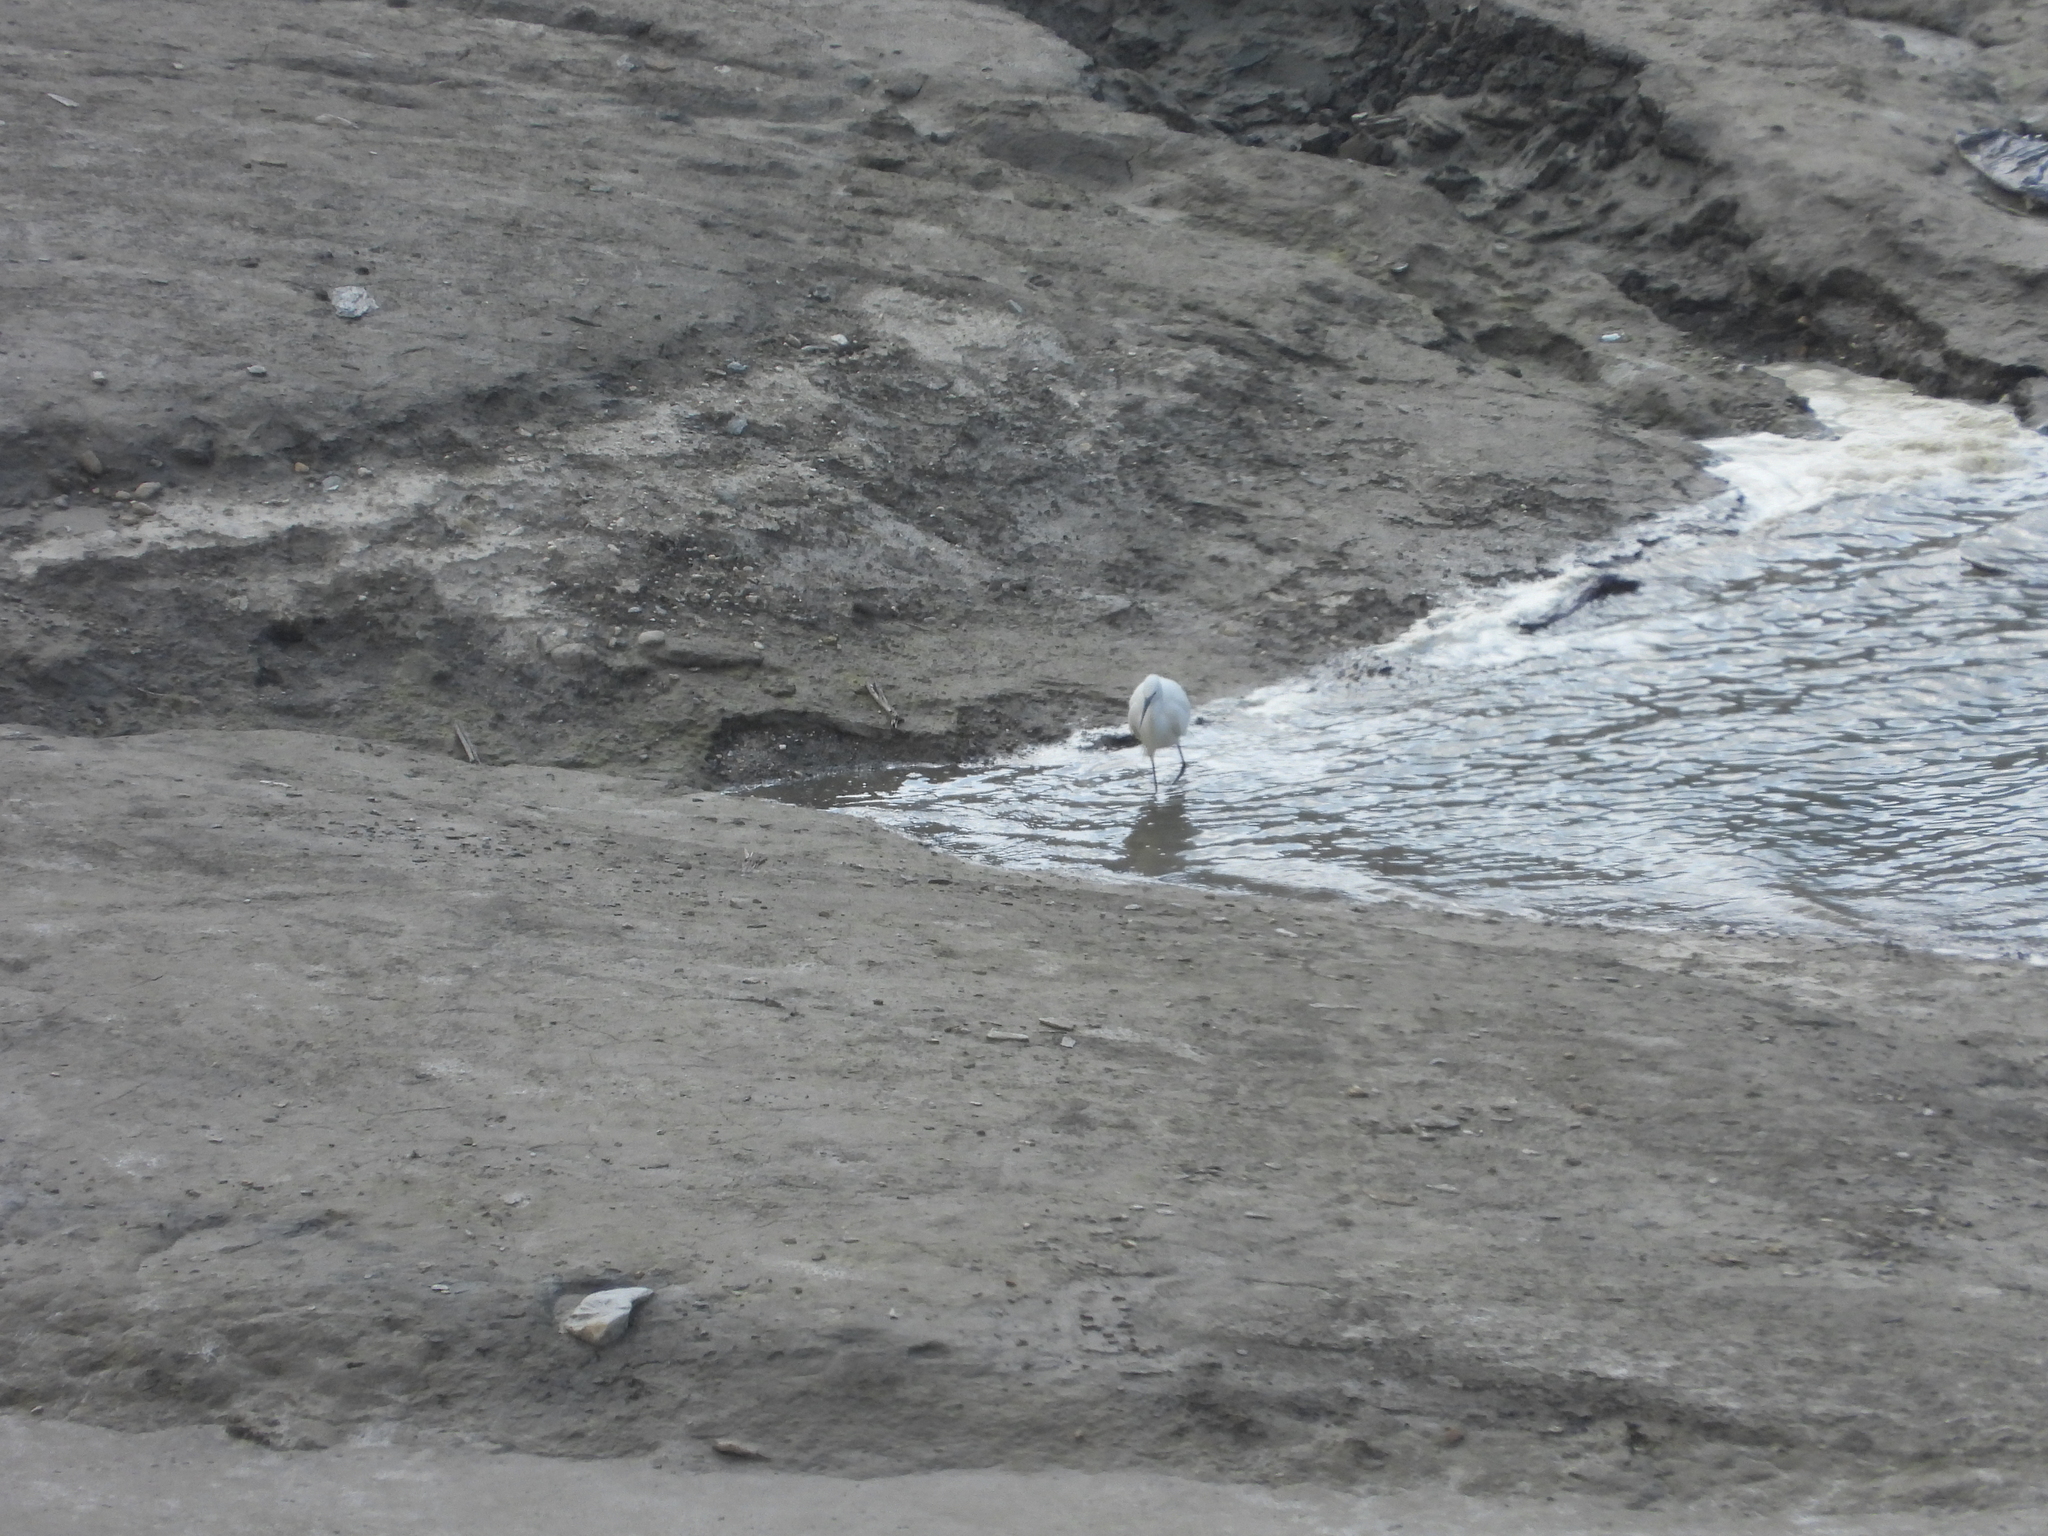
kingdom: Animalia
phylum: Chordata
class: Aves
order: Pelecaniformes
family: Ardeidae
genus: Egretta
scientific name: Egretta garzetta
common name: Little egret
